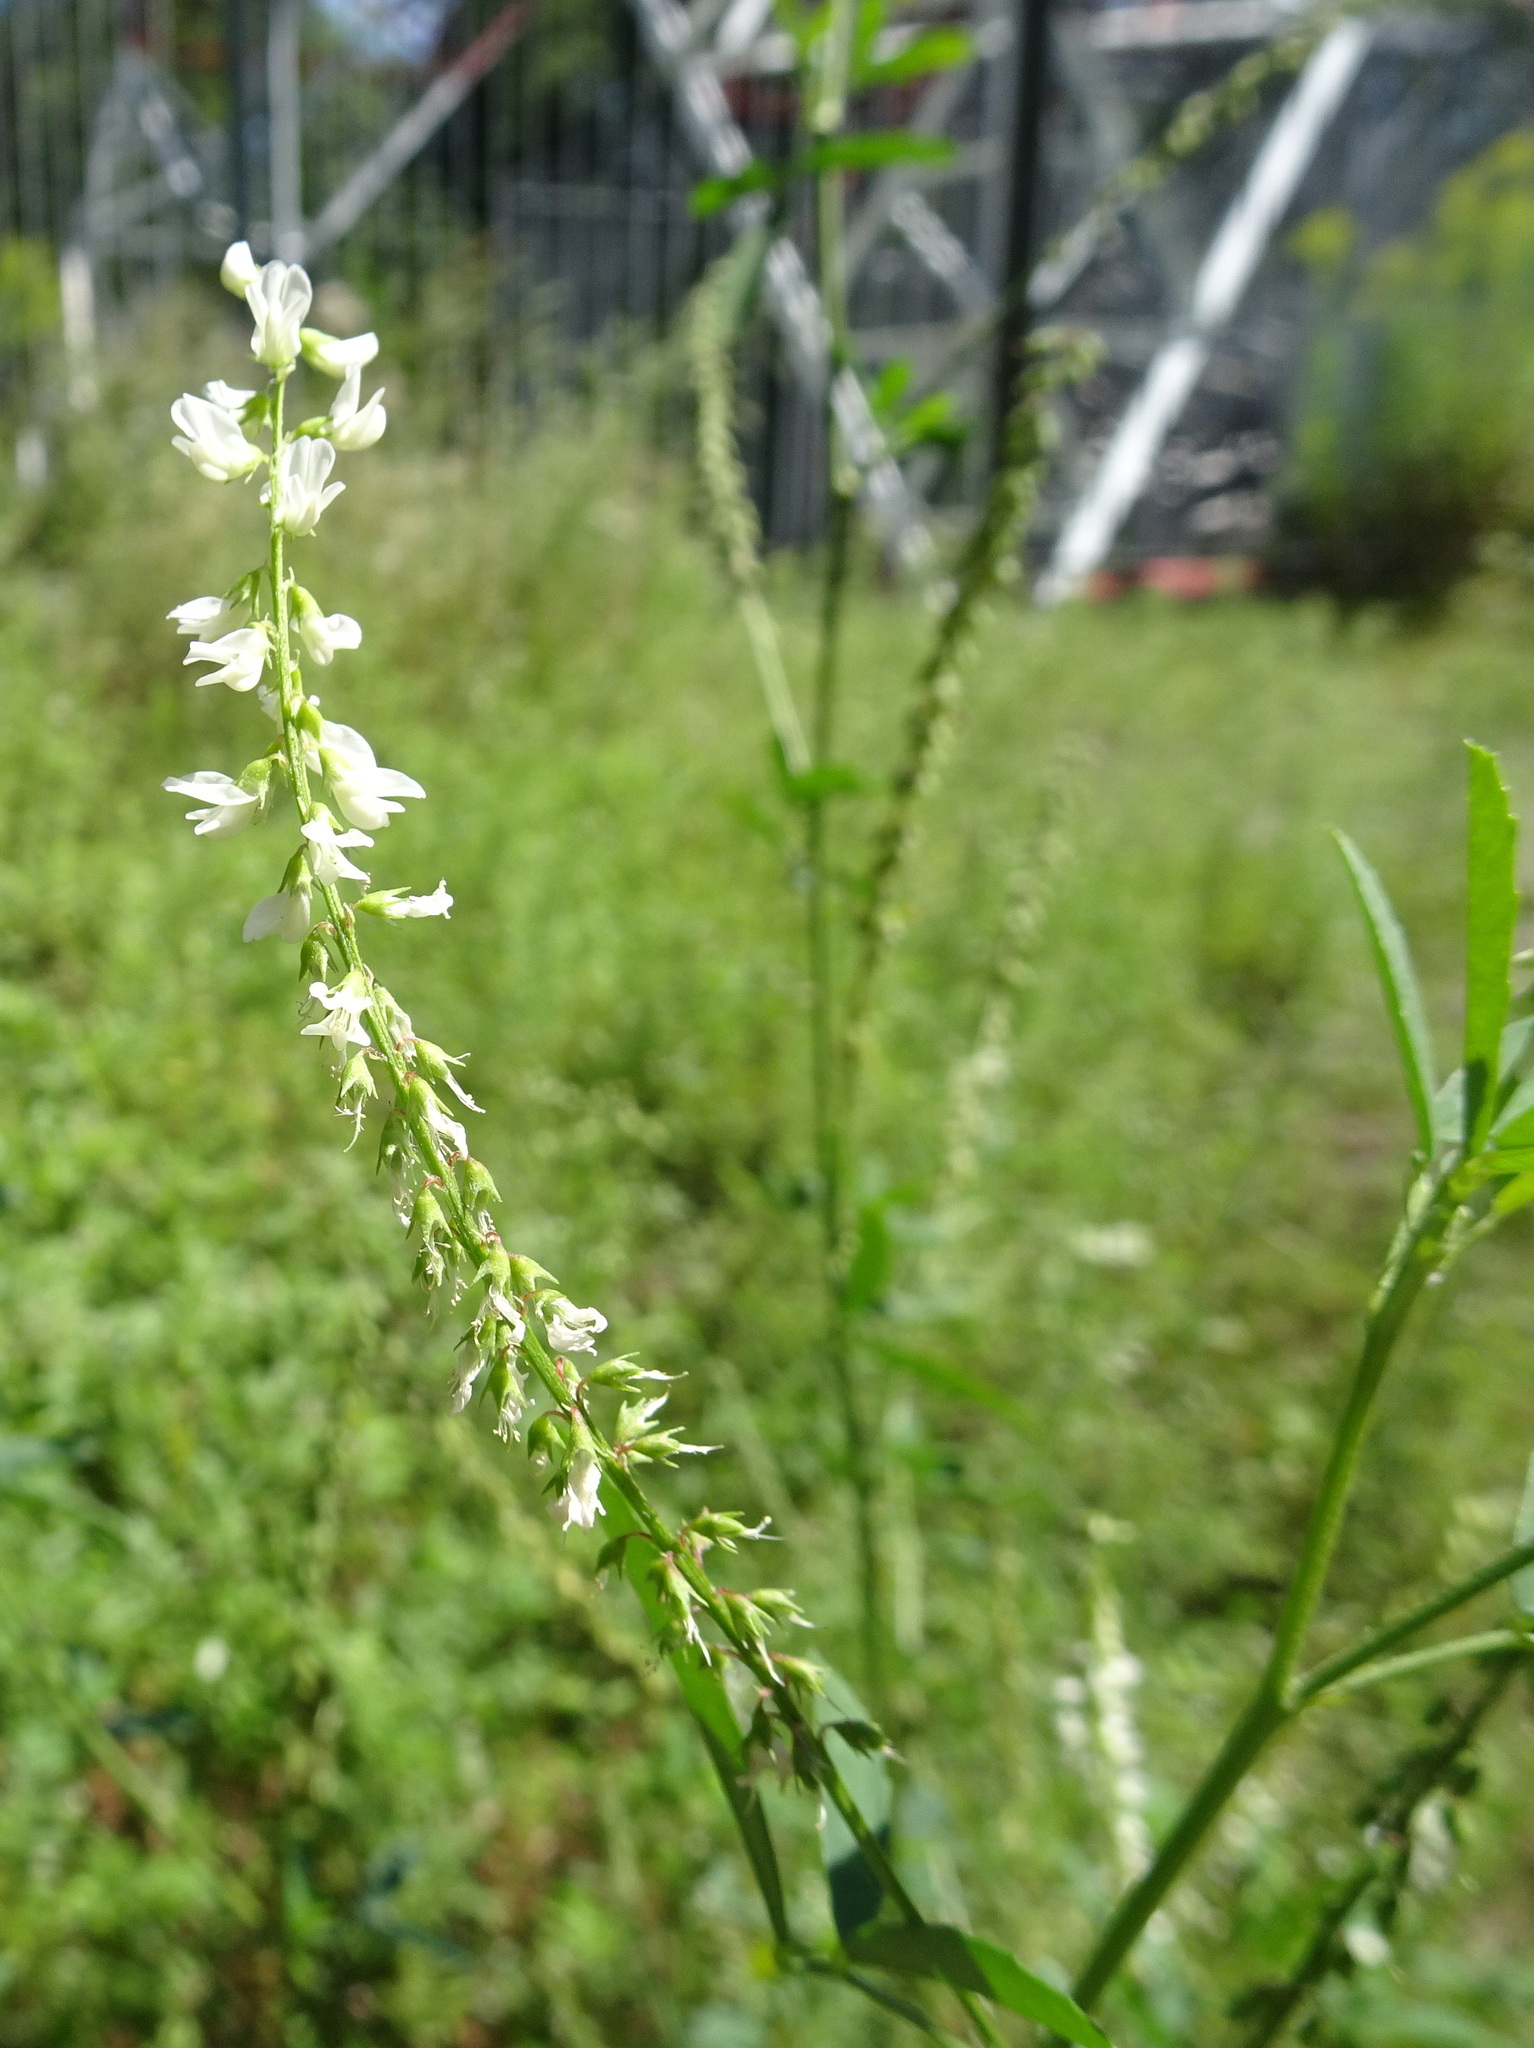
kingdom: Plantae
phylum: Tracheophyta
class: Magnoliopsida
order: Fabales
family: Fabaceae
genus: Melilotus
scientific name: Melilotus albus
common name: White melilot
